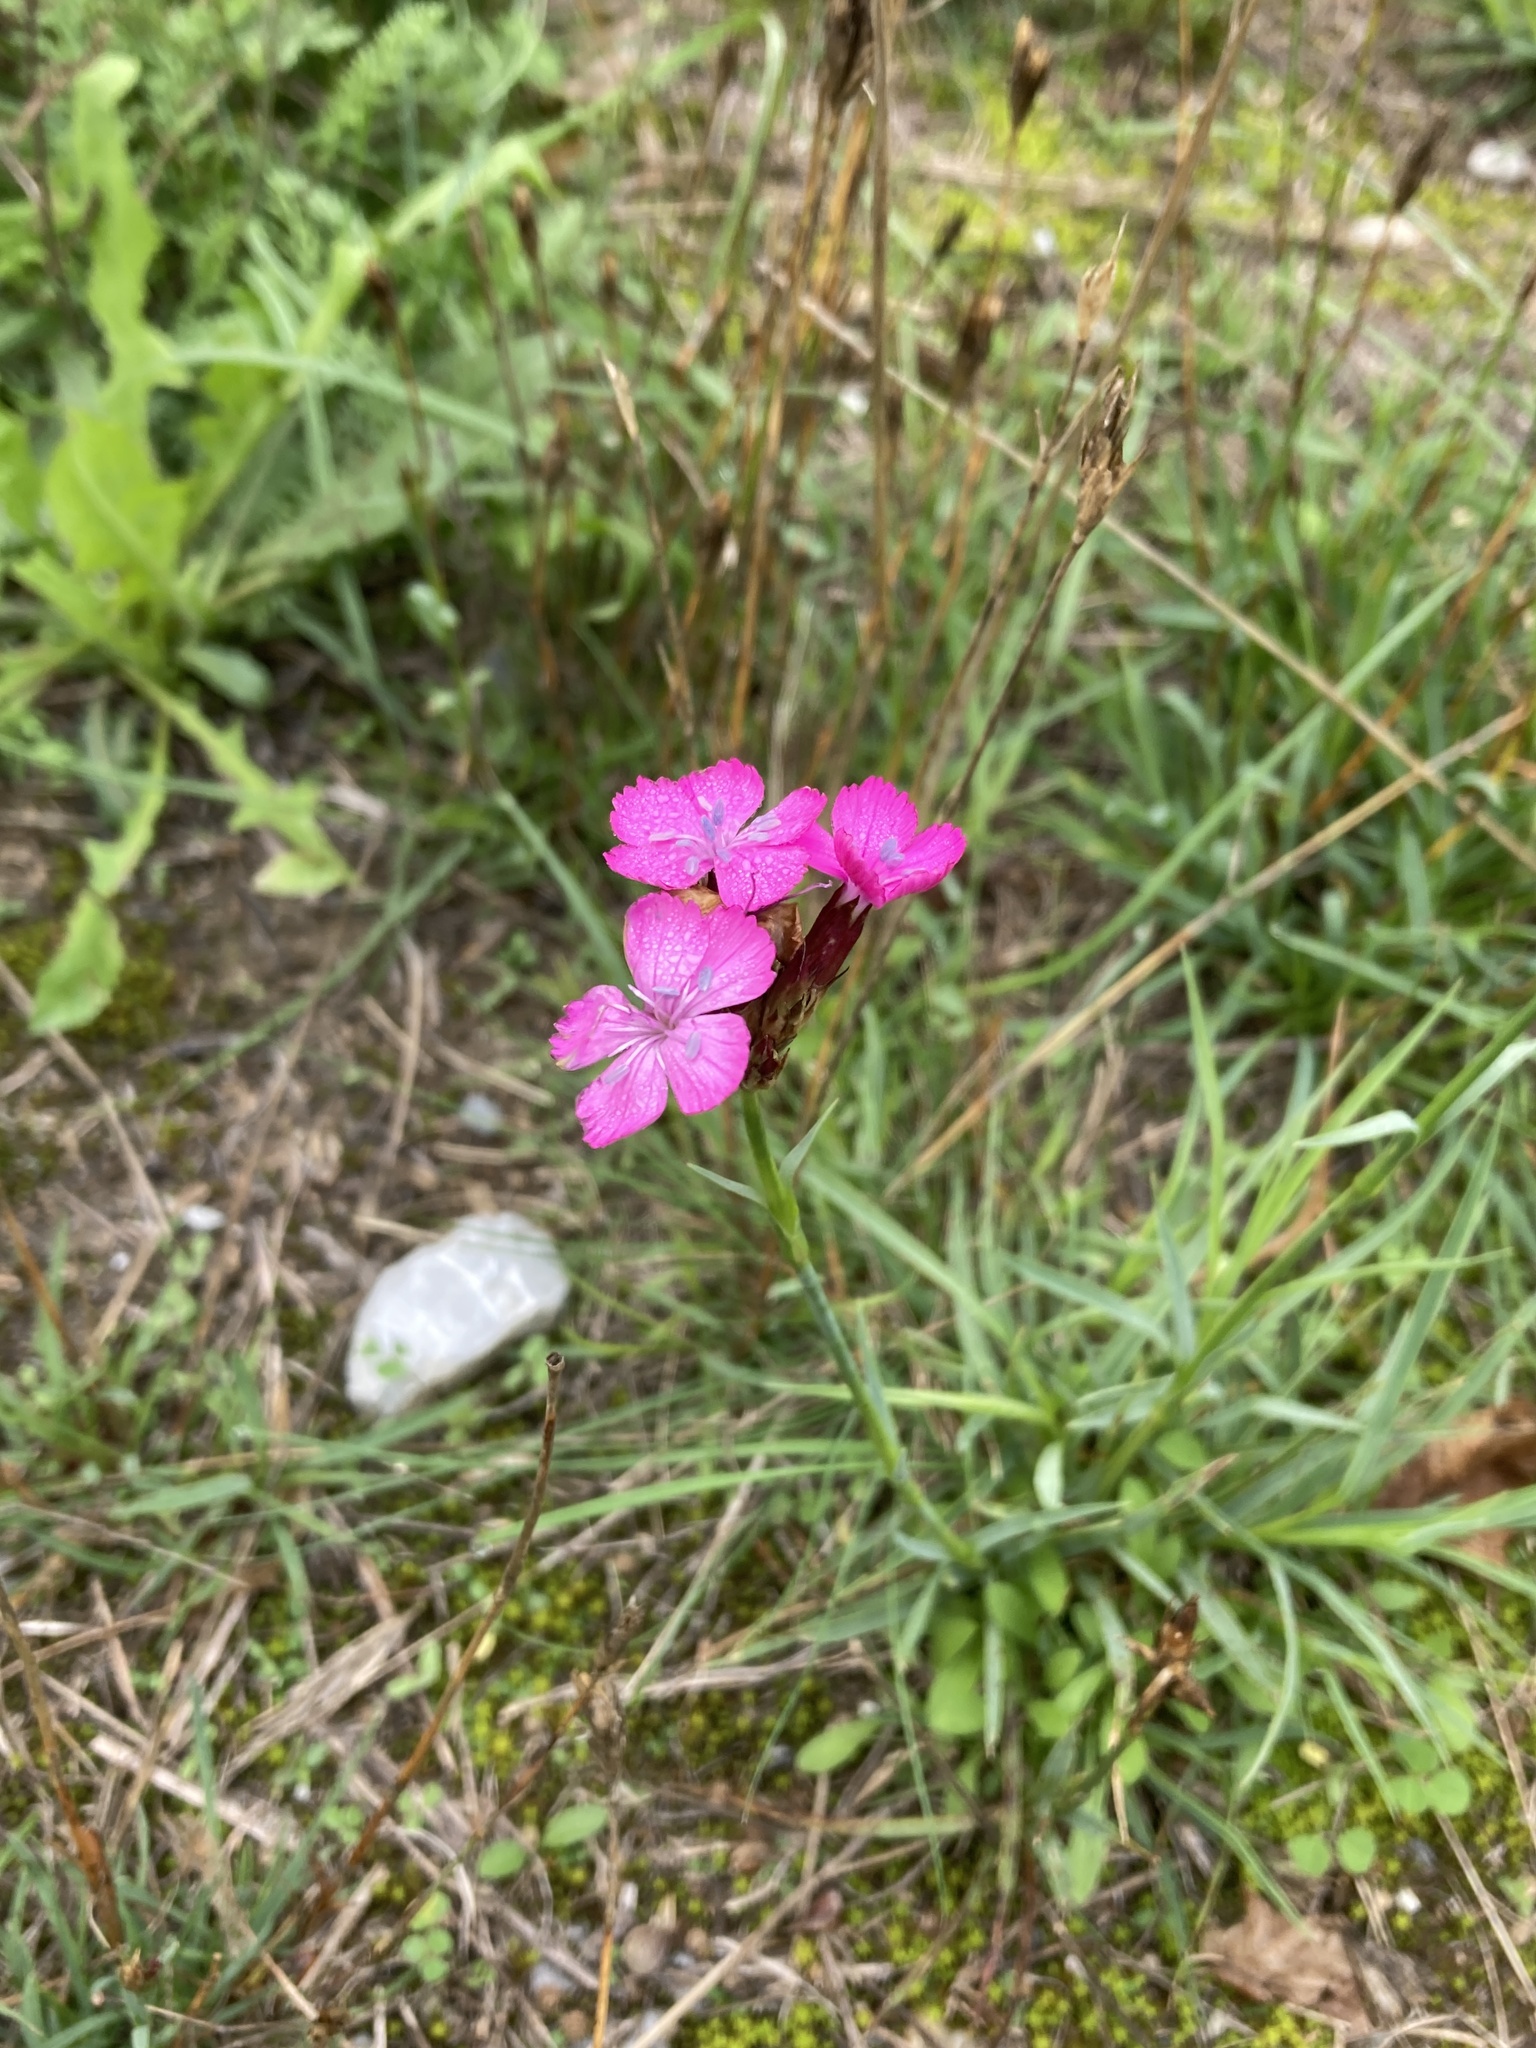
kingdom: Plantae
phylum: Tracheophyta
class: Magnoliopsida
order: Caryophyllales
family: Caryophyllaceae
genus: Dianthus
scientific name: Dianthus carthusianorum
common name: Carthusian pink
